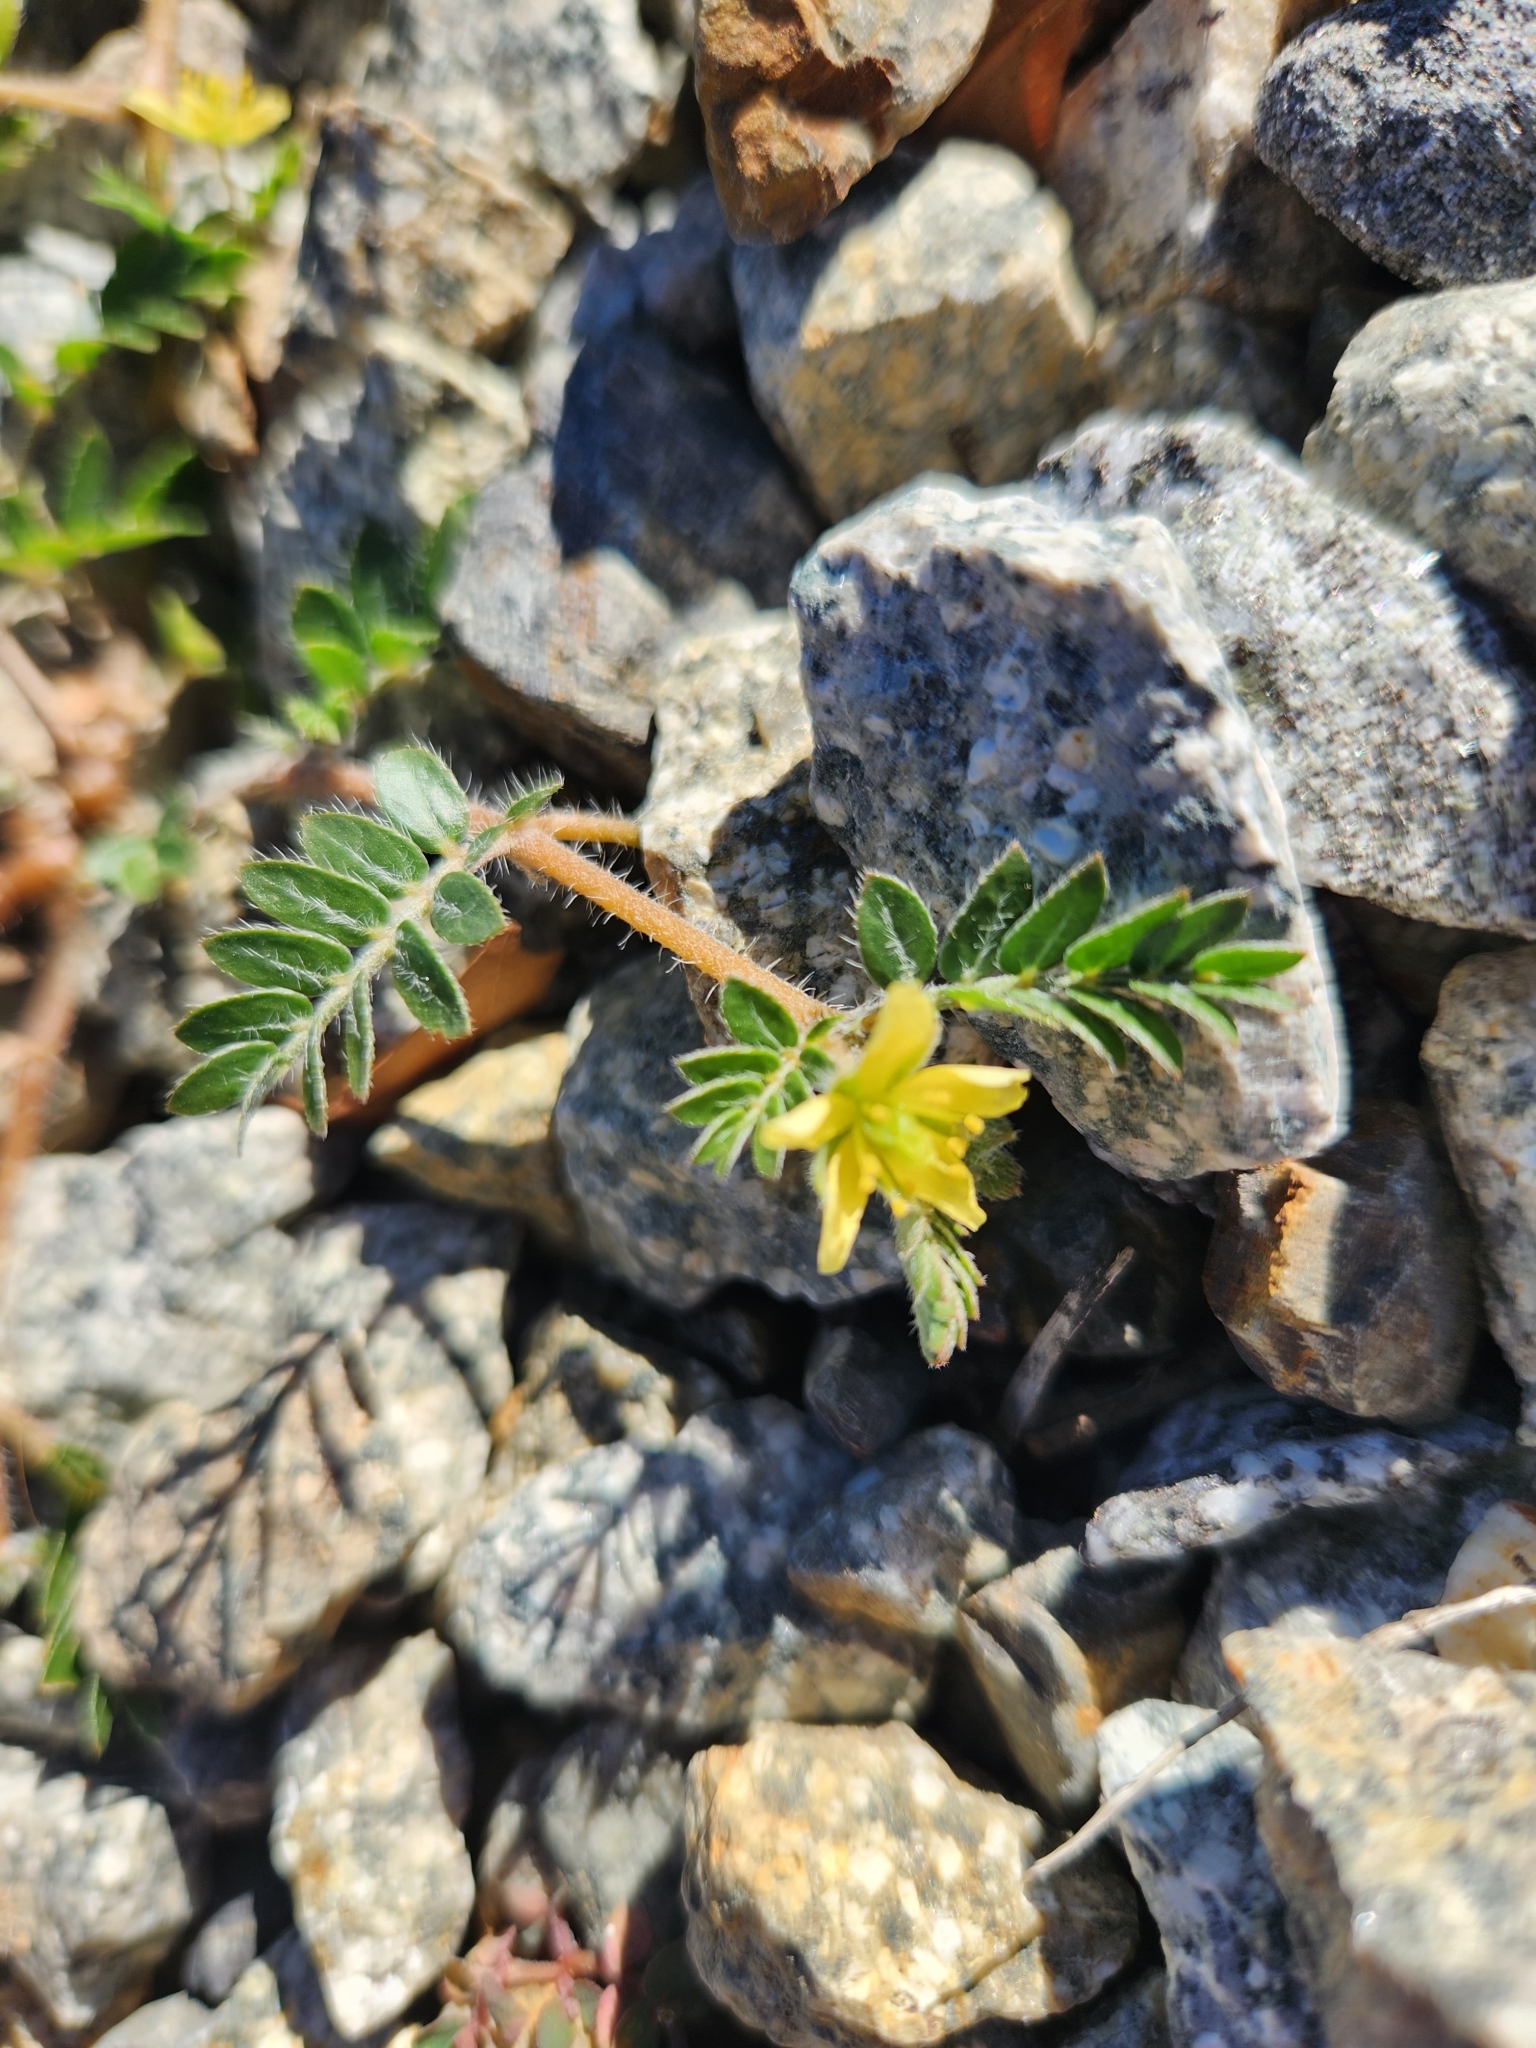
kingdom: Plantae
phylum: Tracheophyta
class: Magnoliopsida
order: Zygophyllales
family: Zygophyllaceae
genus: Tribulus
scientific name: Tribulus terrestris
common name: Puncturevine
